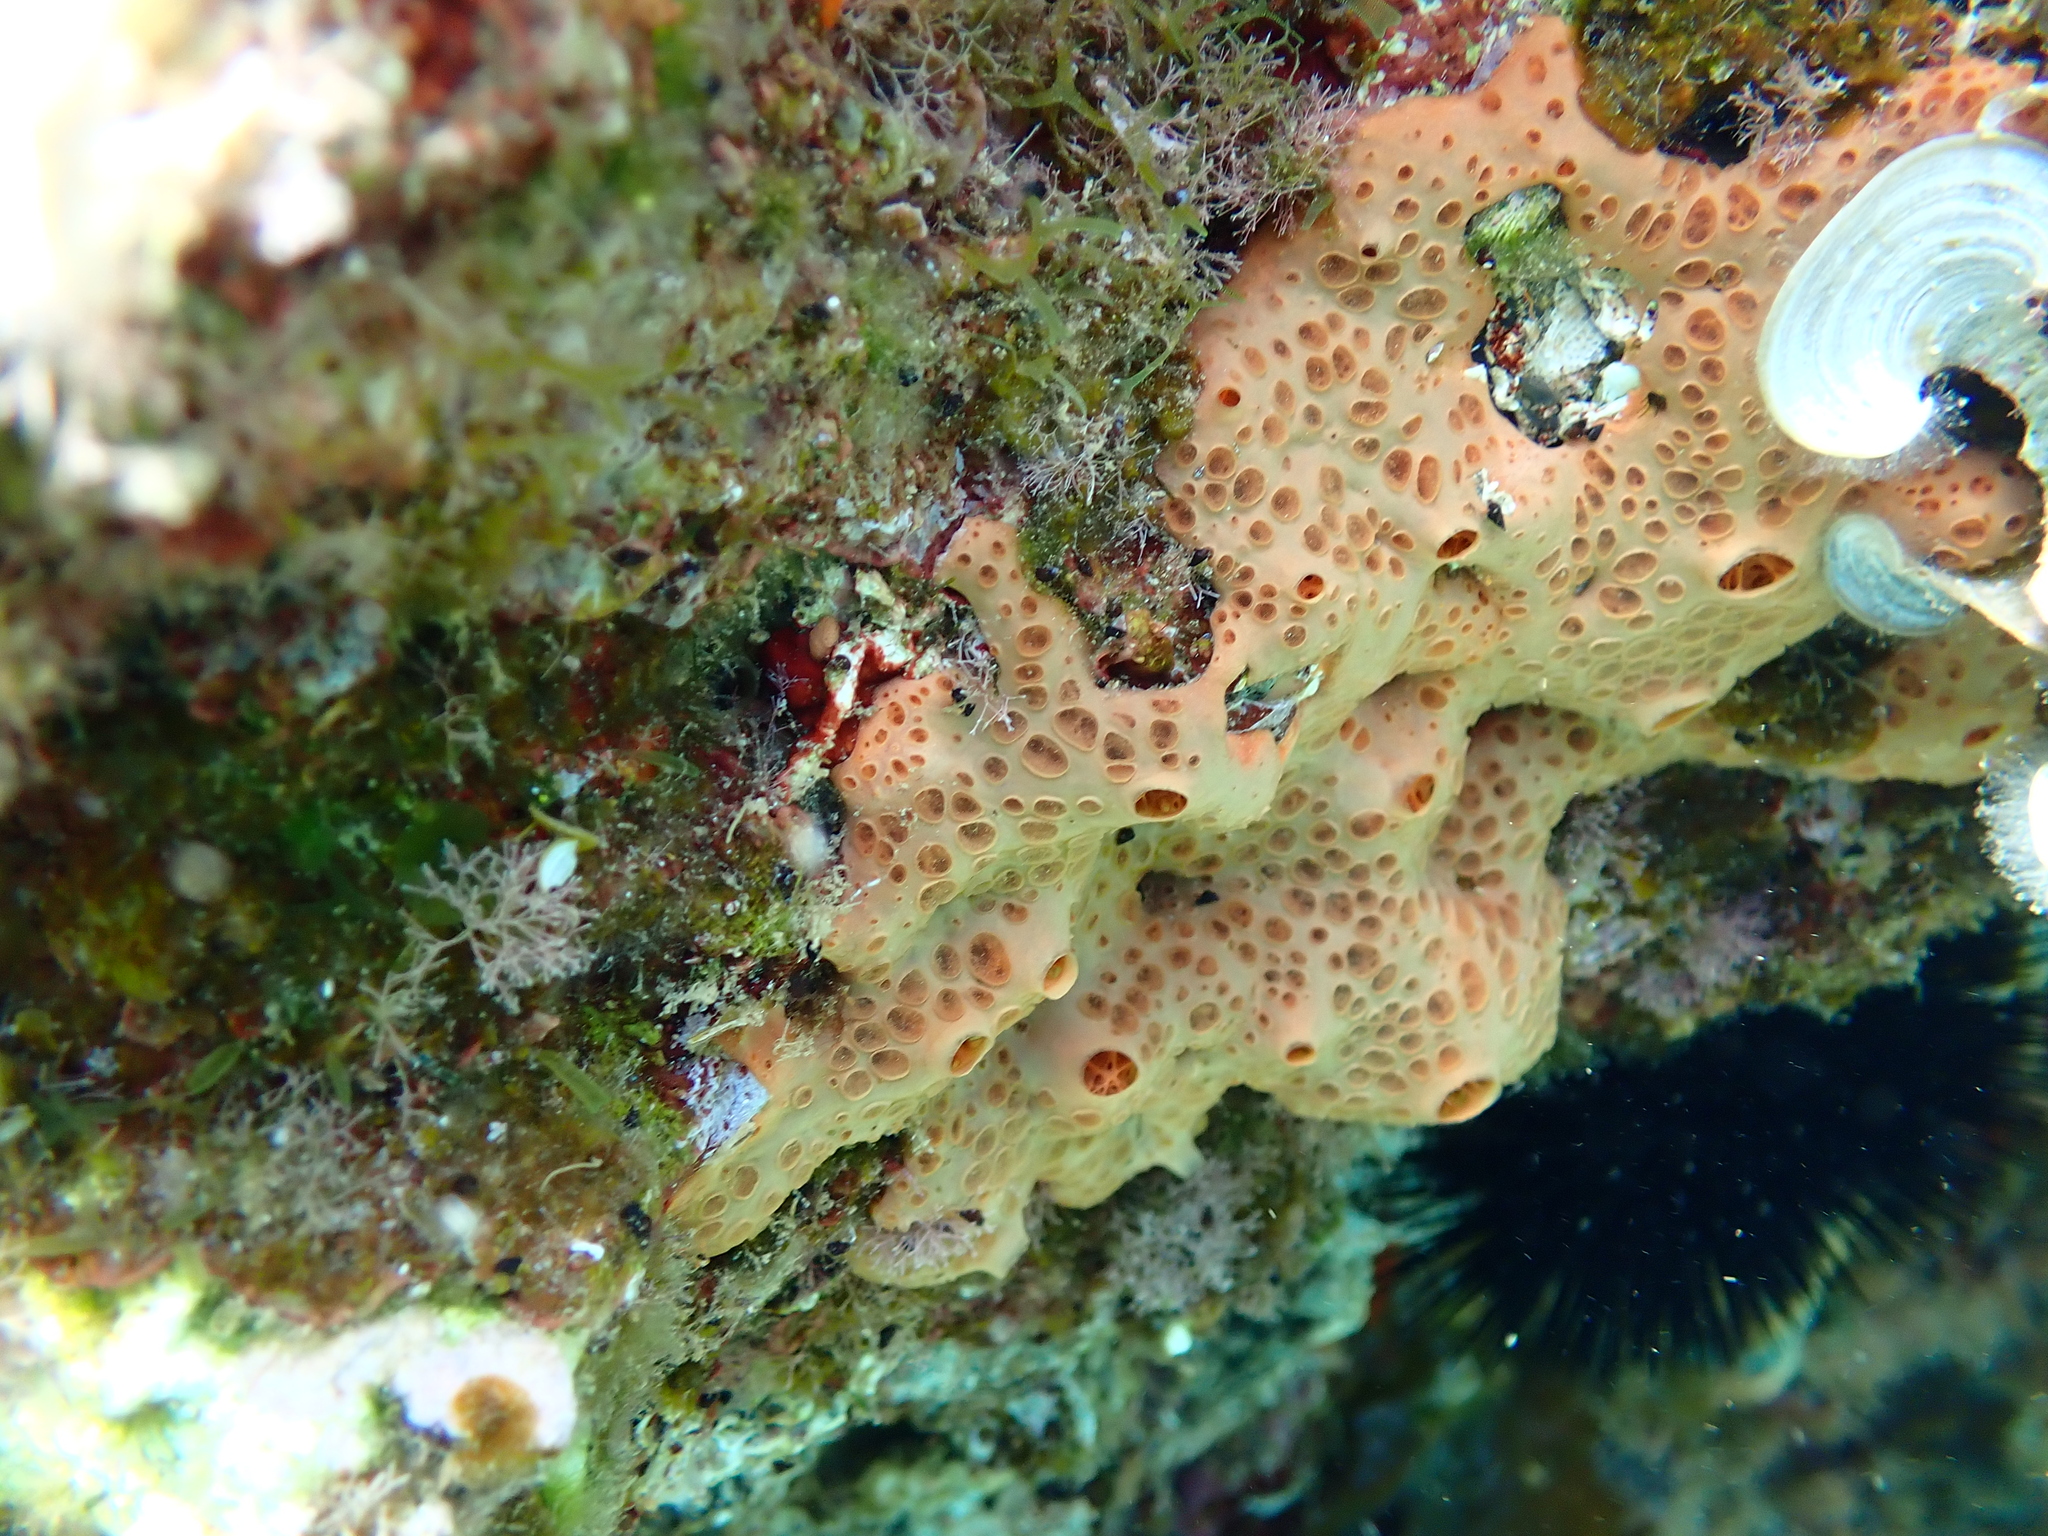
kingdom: Animalia
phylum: Porifera
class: Demospongiae
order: Poecilosclerida
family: Hymedesmiidae
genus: Hemimycale
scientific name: Hemimycale columella
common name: Crater sponge
